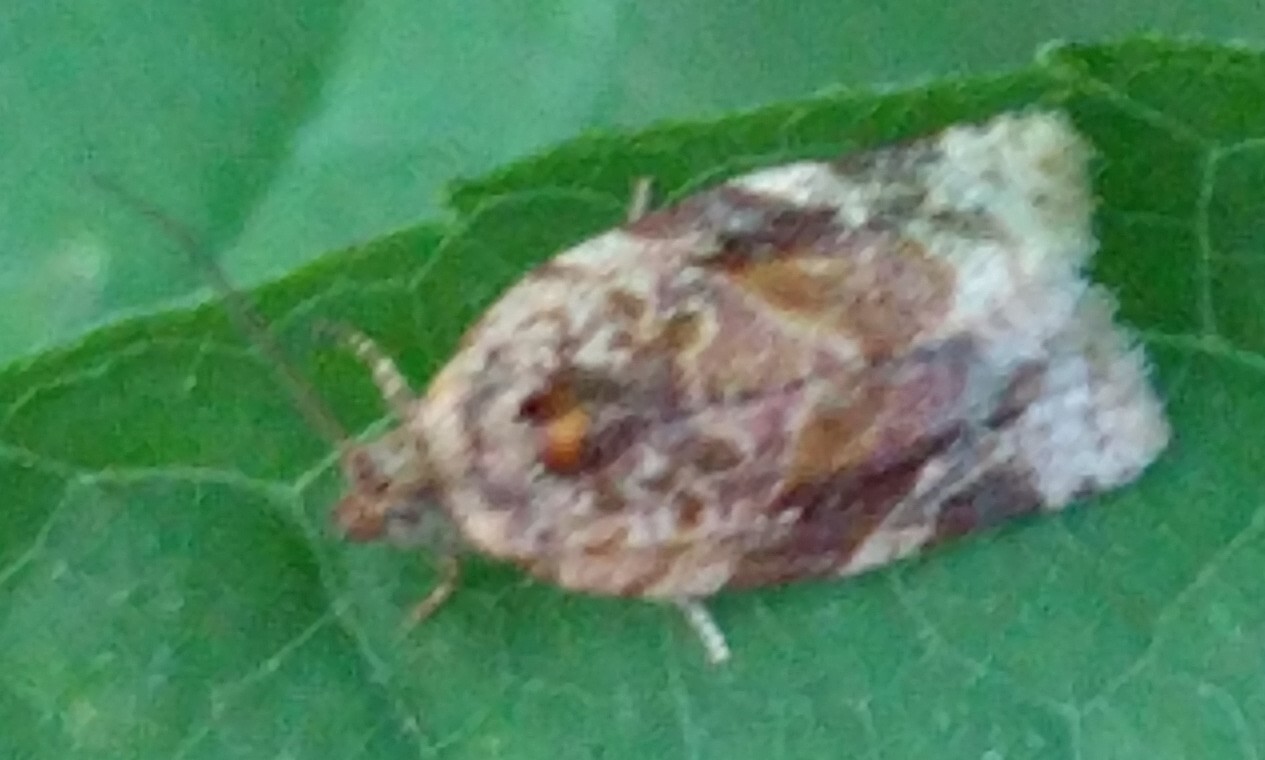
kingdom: Animalia
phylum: Arthropoda
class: Insecta
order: Lepidoptera
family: Tortricidae
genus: Argyrotaenia
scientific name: Argyrotaenia velutinana
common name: Red-banded leafroller moth
